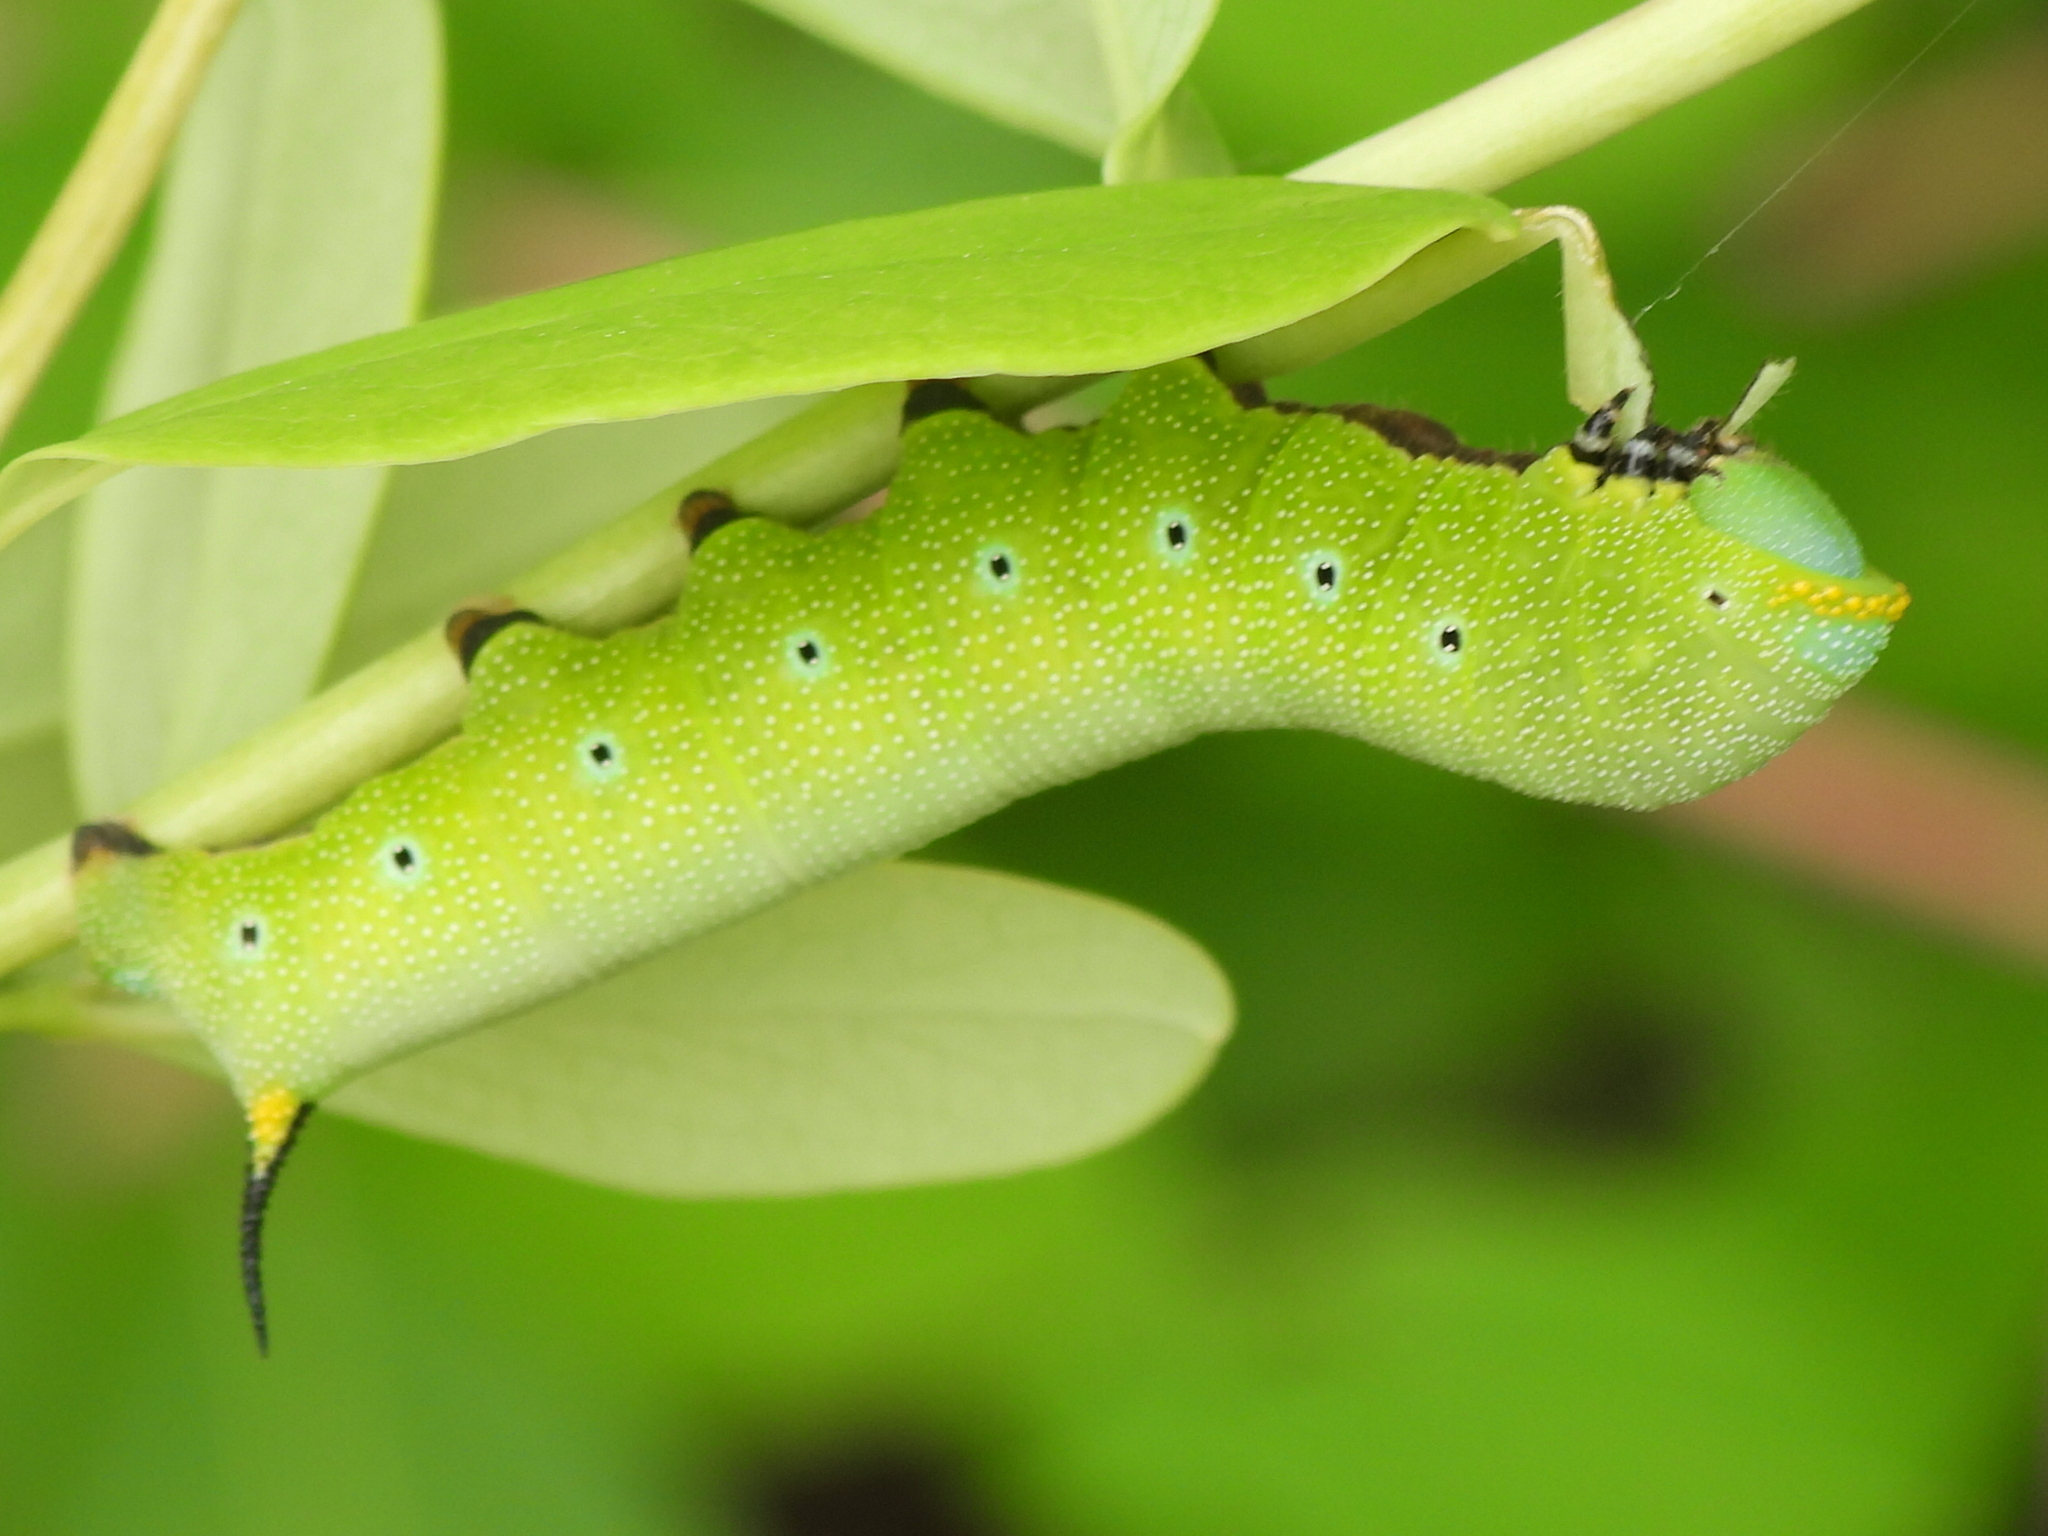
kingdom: Animalia
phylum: Arthropoda
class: Insecta
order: Lepidoptera
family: Sphingidae
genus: Hemaris
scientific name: Hemaris diffinis
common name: Bumblebee moth
